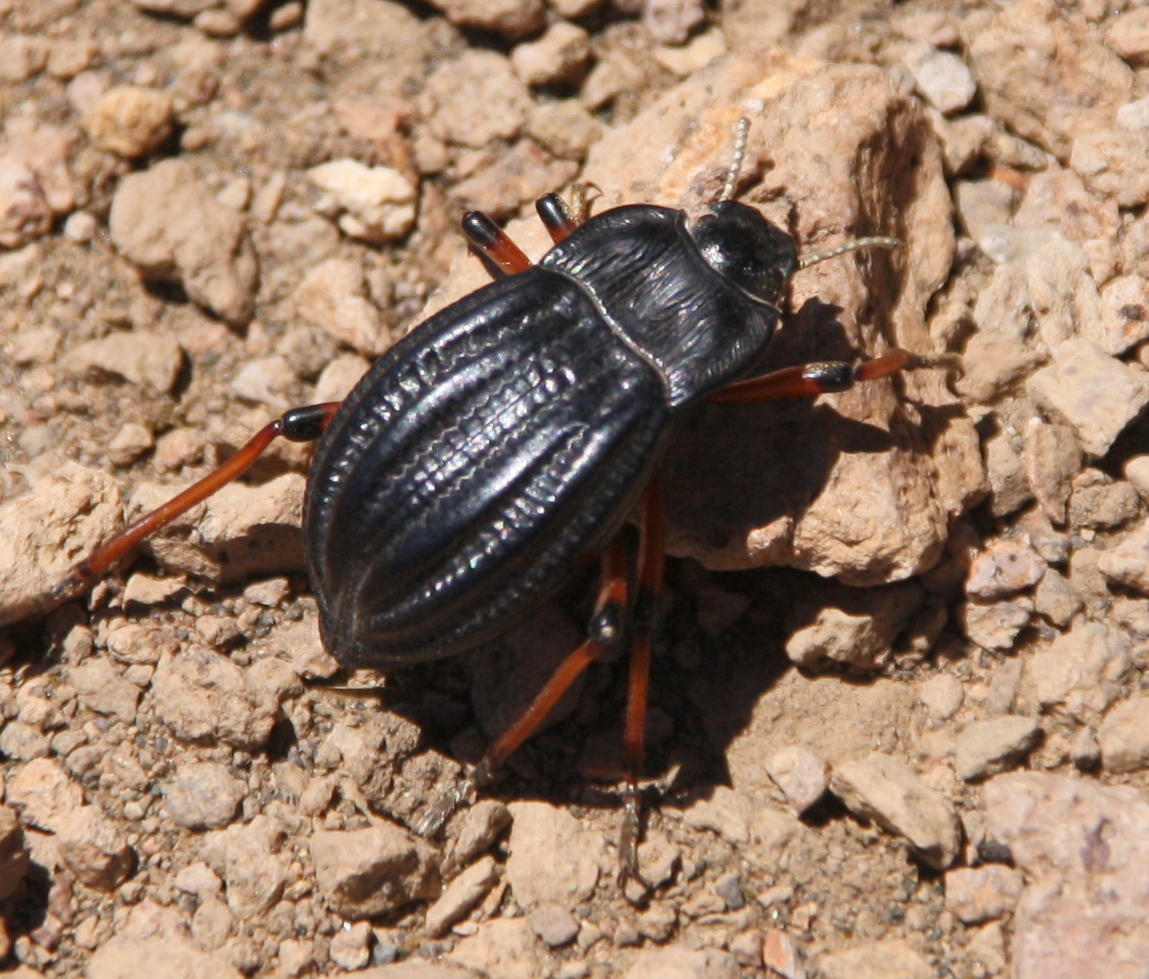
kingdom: Animalia
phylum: Arthropoda
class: Insecta
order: Coleoptera
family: Tenebrionidae
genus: Epipedonota
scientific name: Epipedonota
